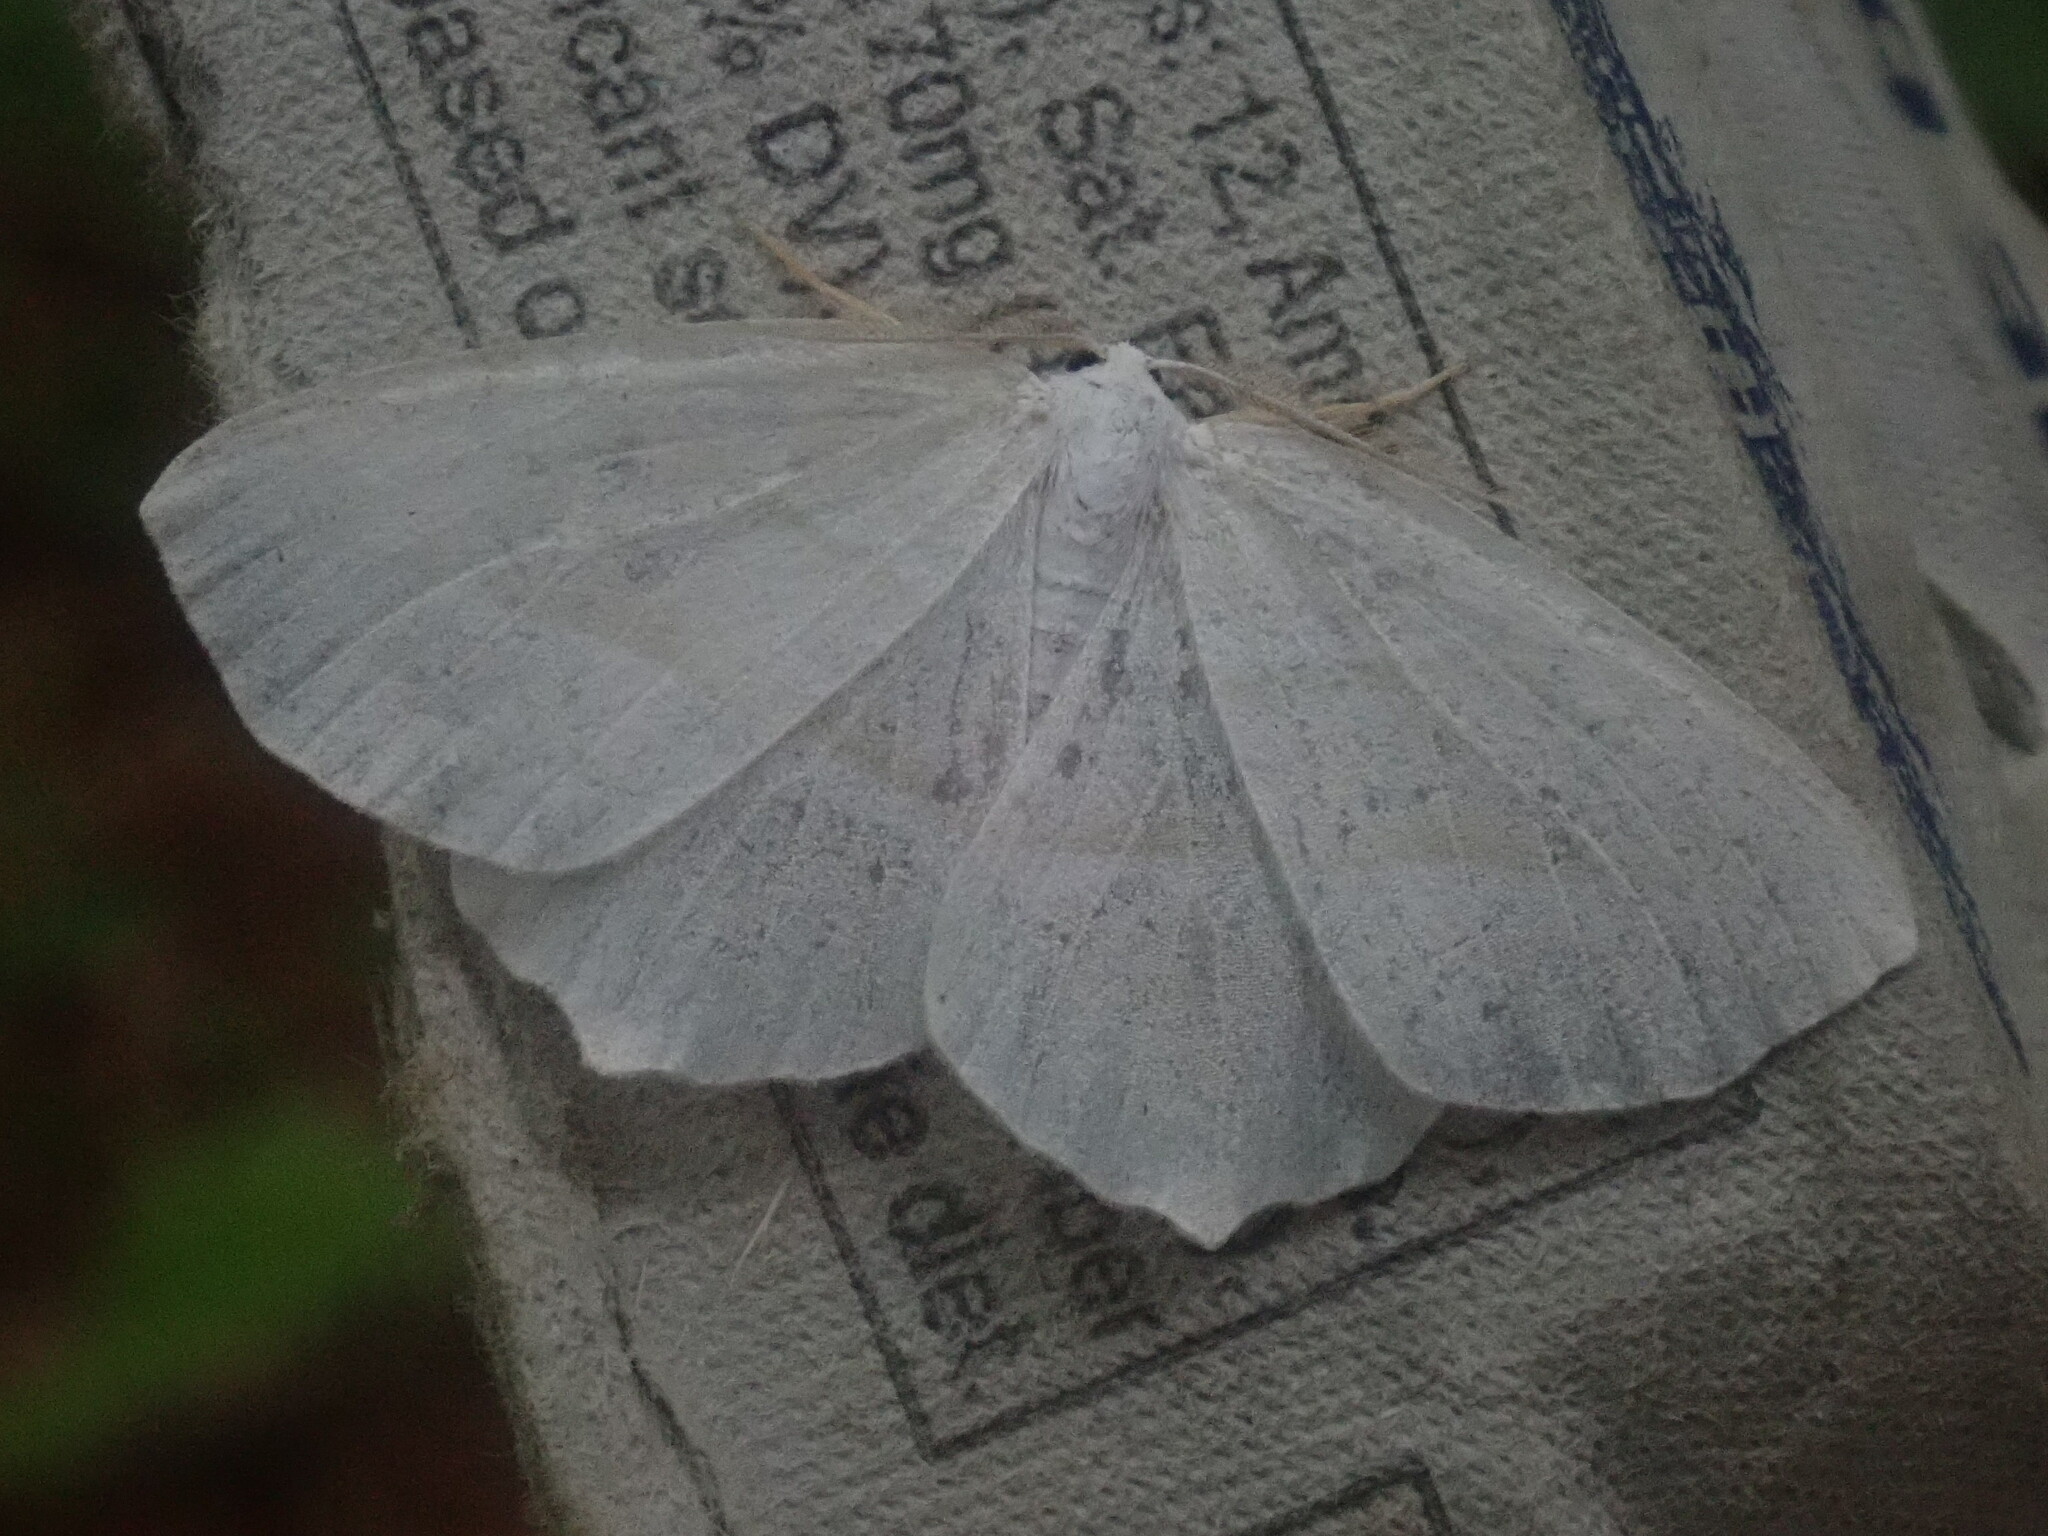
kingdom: Animalia
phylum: Arthropoda
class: Insecta
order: Lepidoptera
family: Geometridae
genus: Campaea
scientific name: Campaea perlata
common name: Fringed looper
